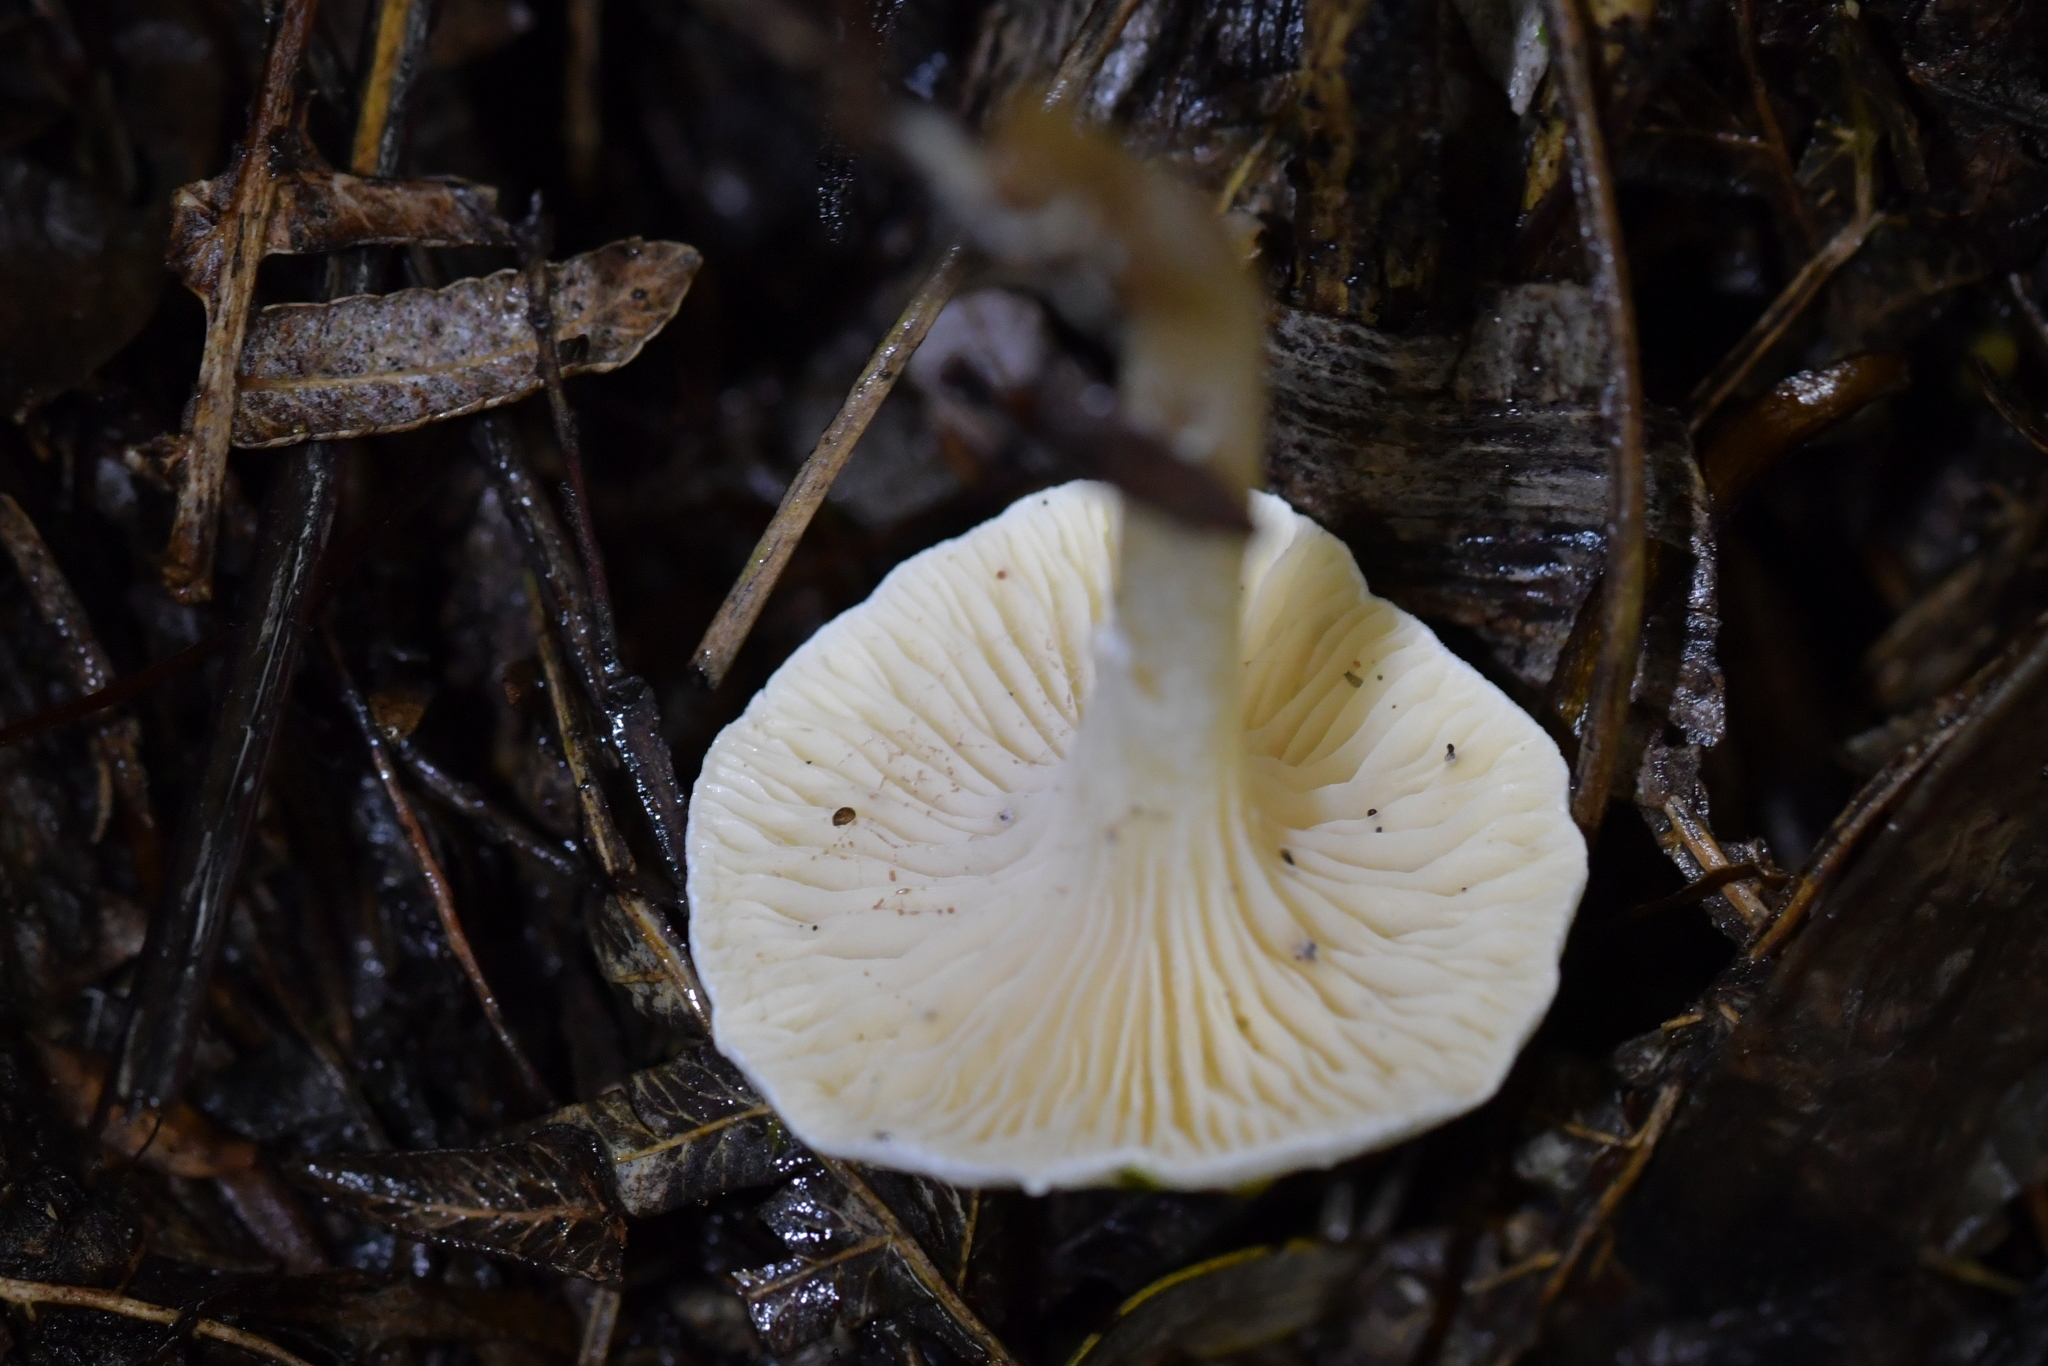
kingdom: Fungi
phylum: Basidiomycota
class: Agaricomycetes
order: Agaricales
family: Hygrophoraceae
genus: Hygrophorus
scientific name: Hygrophorus involutus
